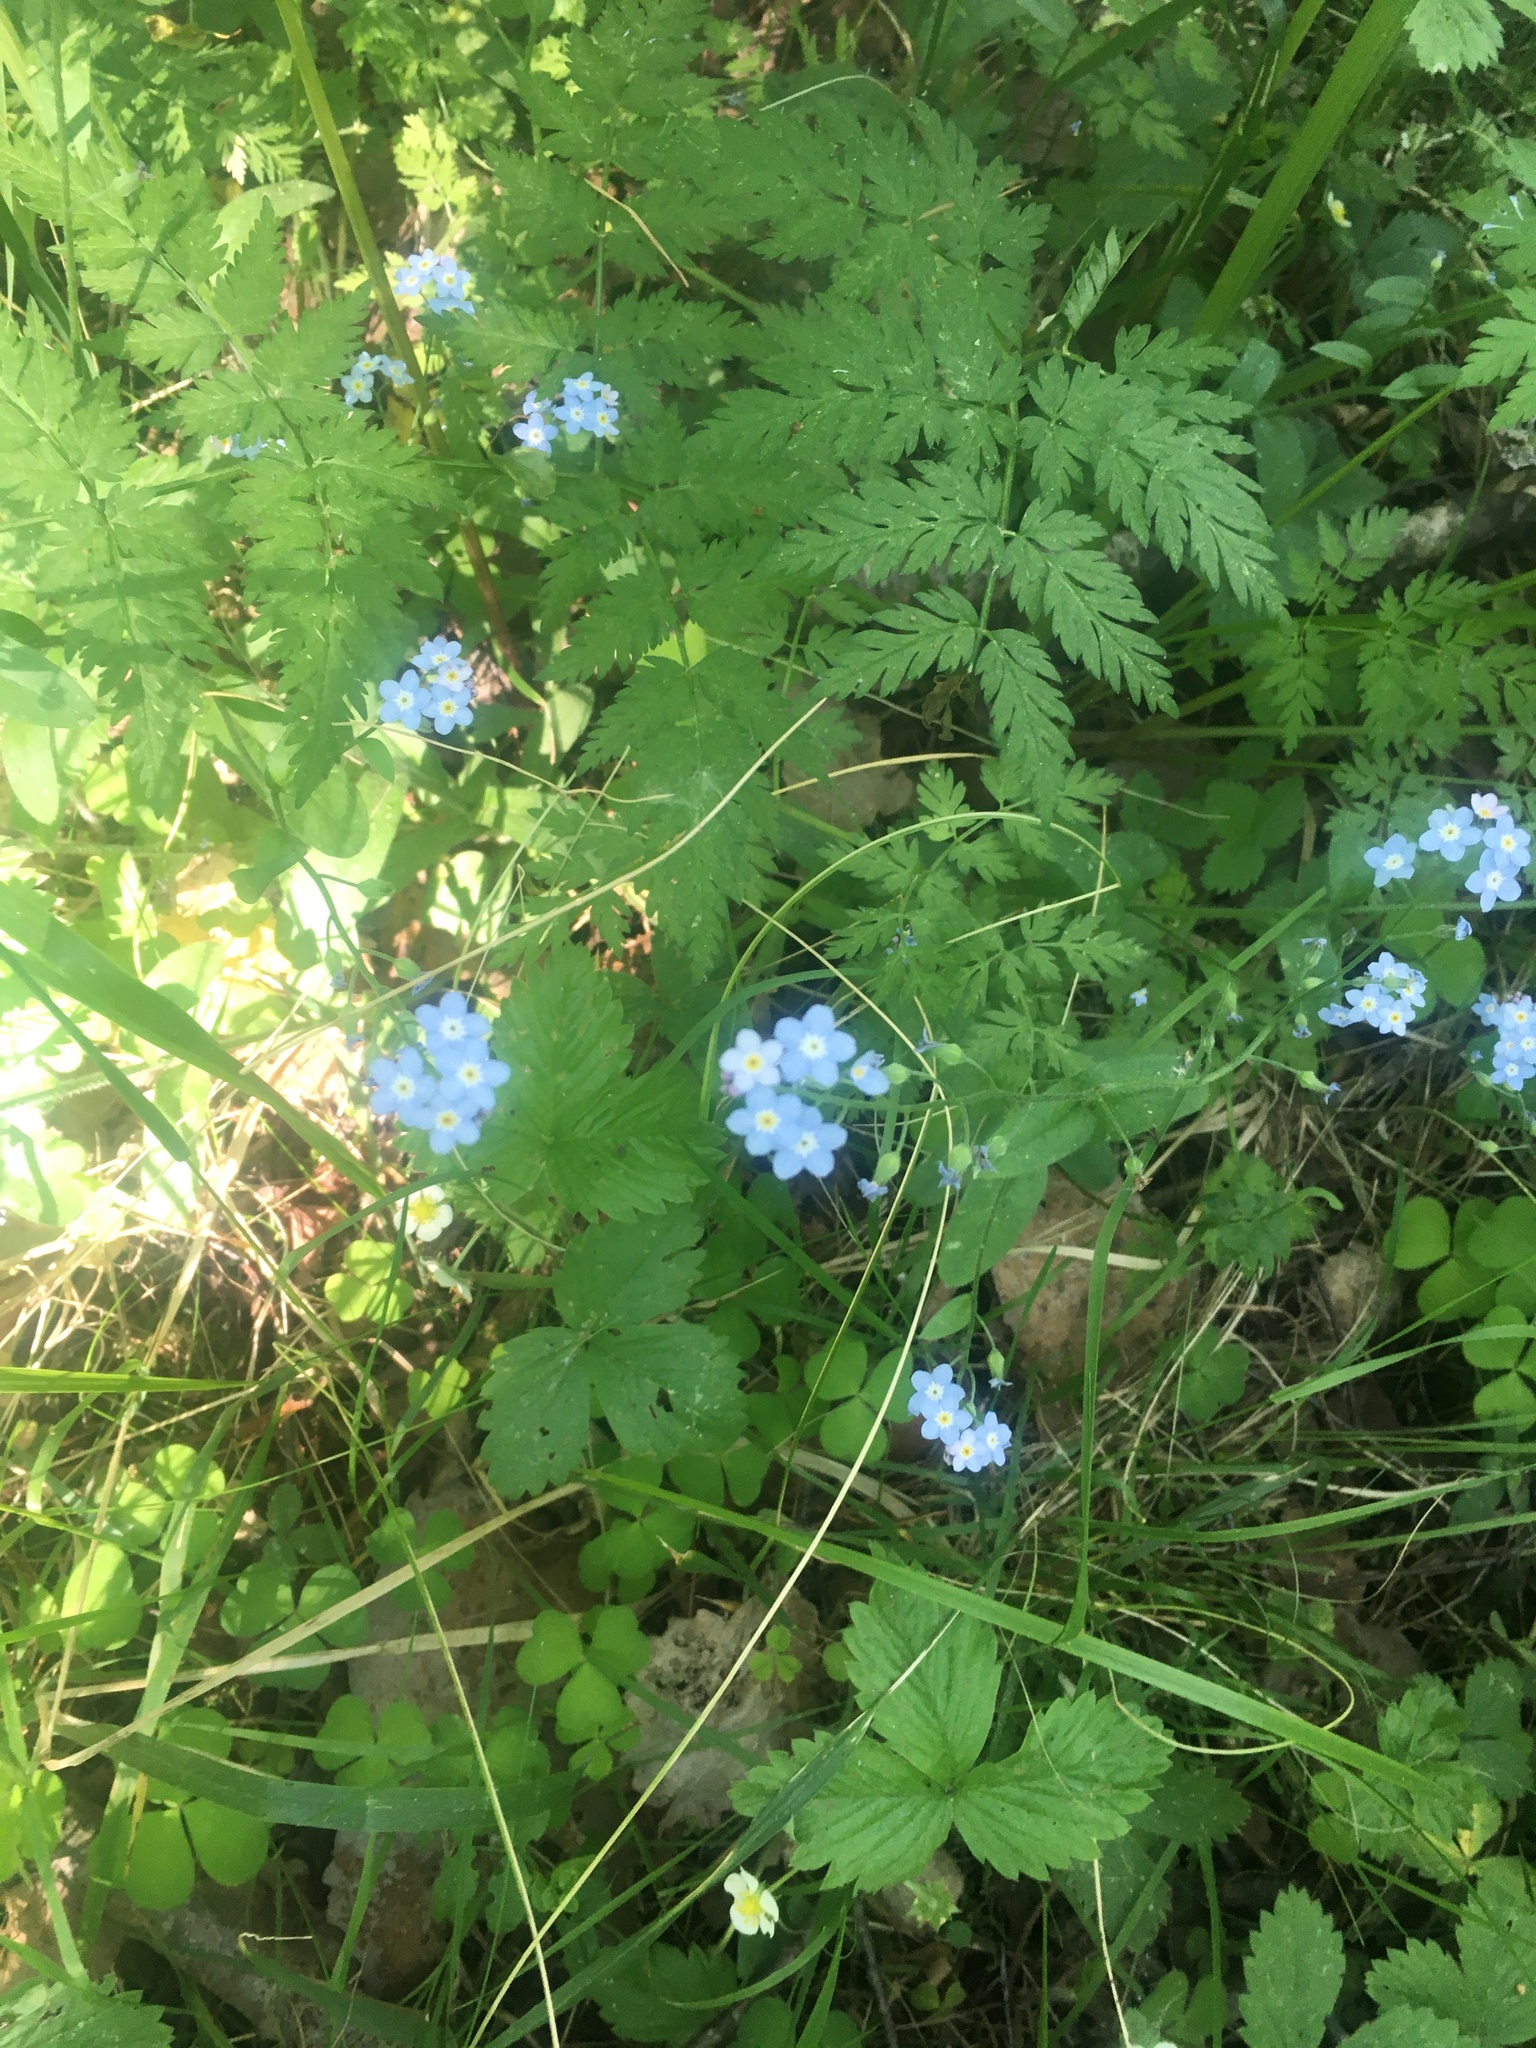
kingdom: Plantae
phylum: Tracheophyta
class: Magnoliopsida
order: Boraginales
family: Boraginaceae
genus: Myosotis
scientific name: Myosotis sylvatica
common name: Wood forget-me-not
